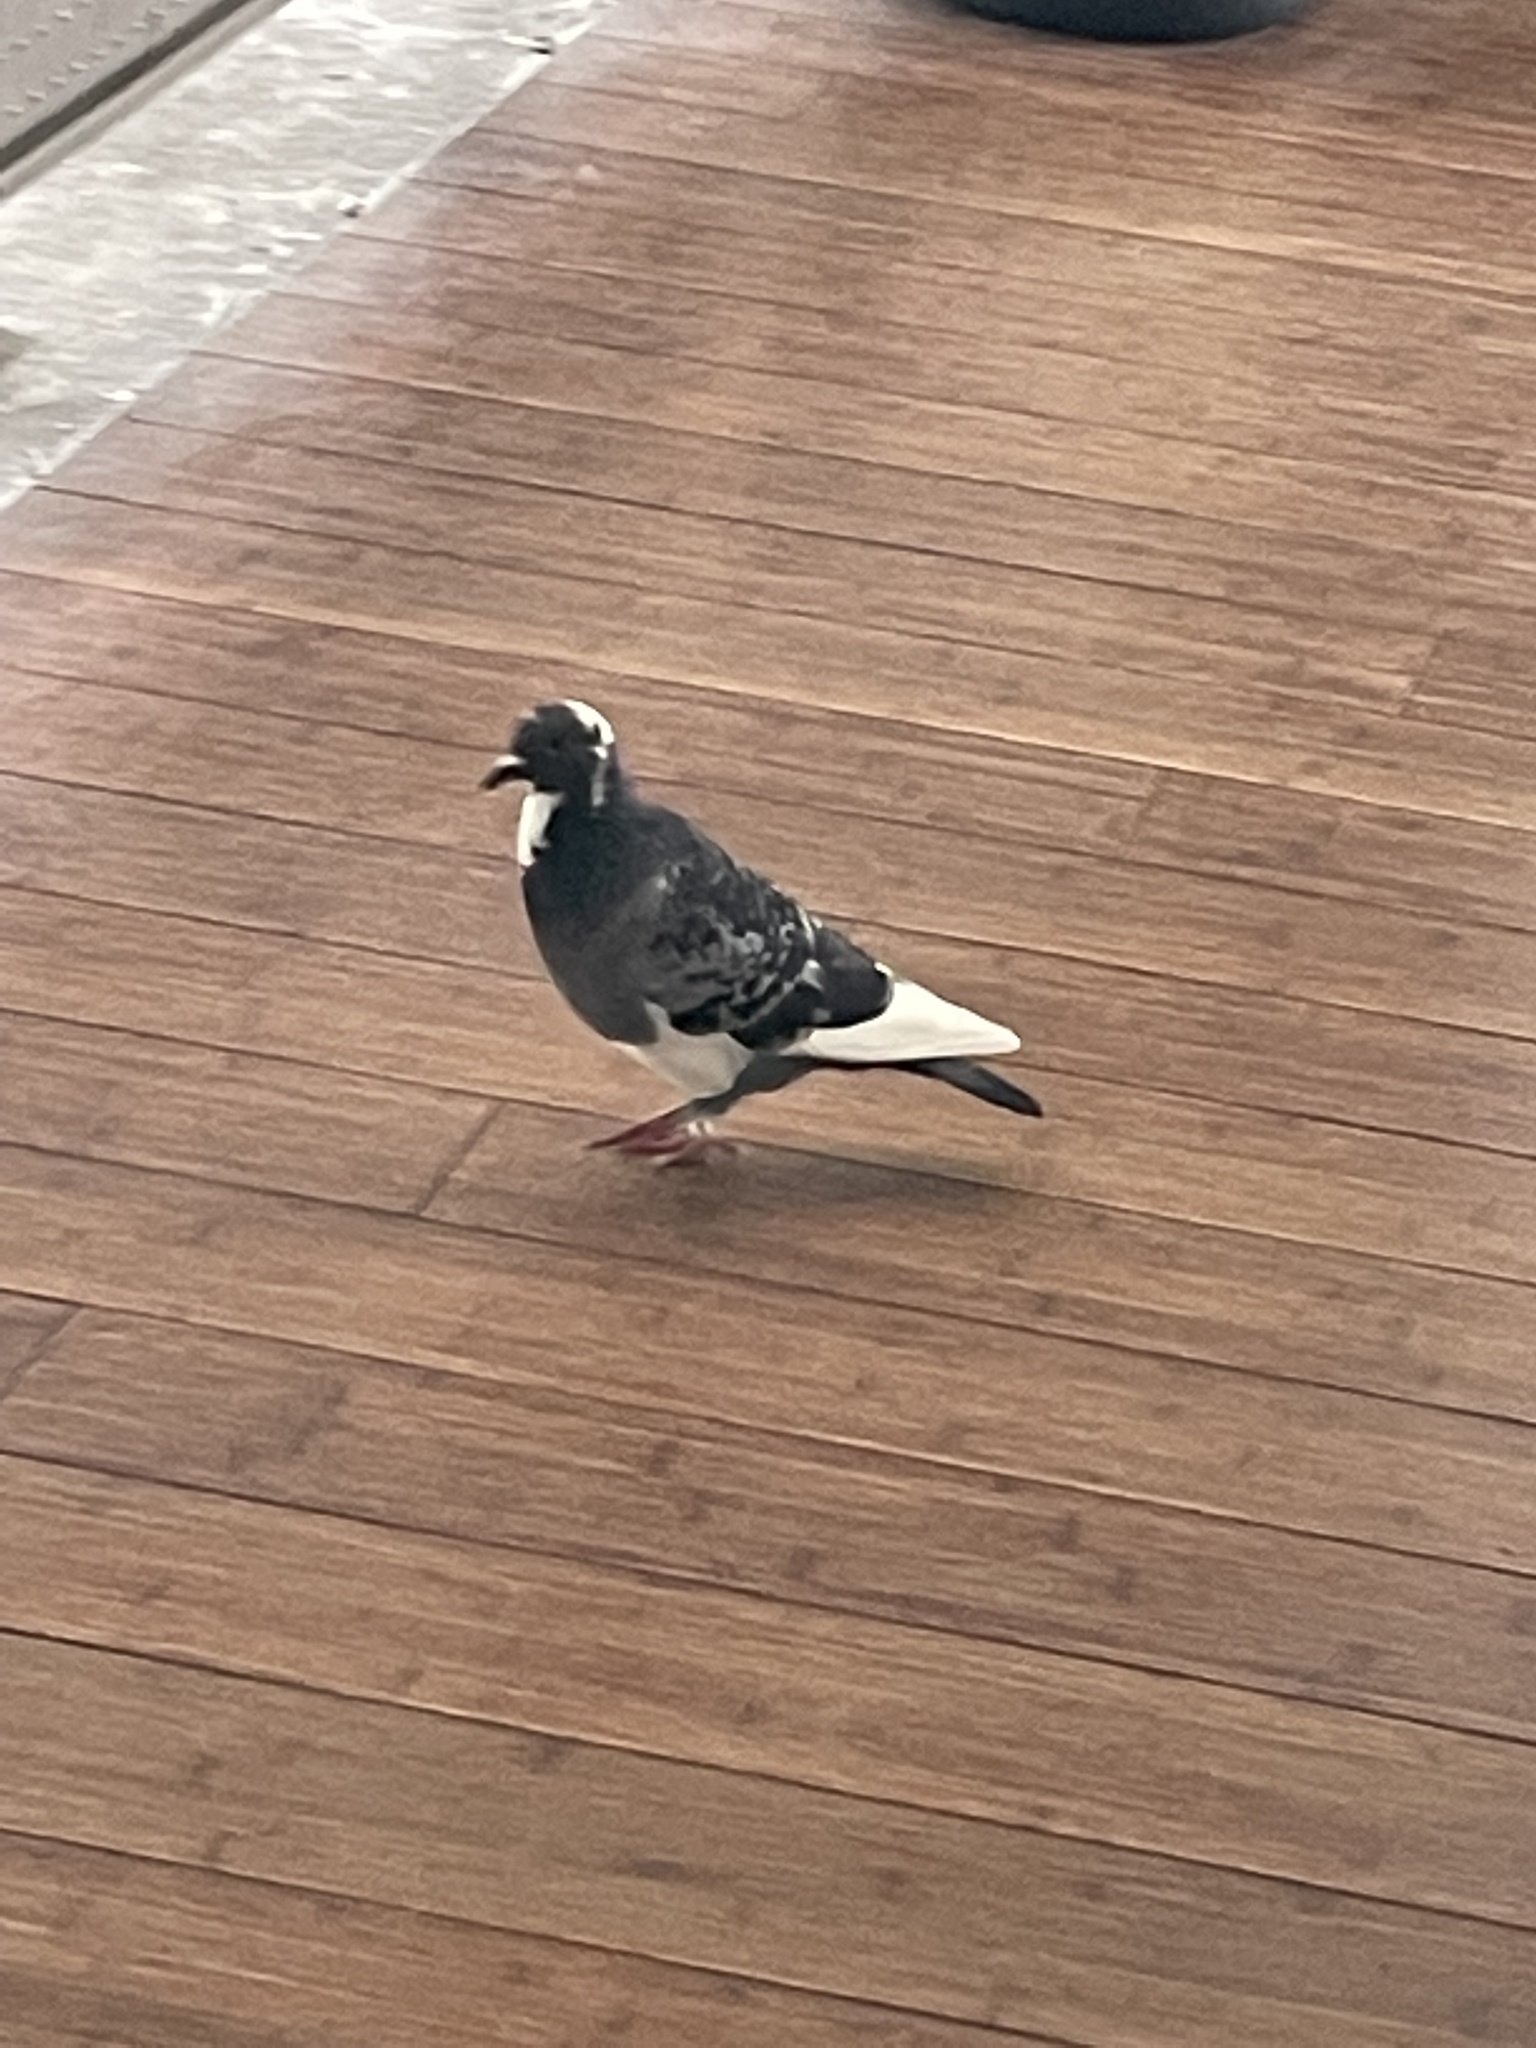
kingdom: Animalia
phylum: Chordata
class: Aves
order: Columbiformes
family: Columbidae
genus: Columba
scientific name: Columba livia
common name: Rock pigeon
